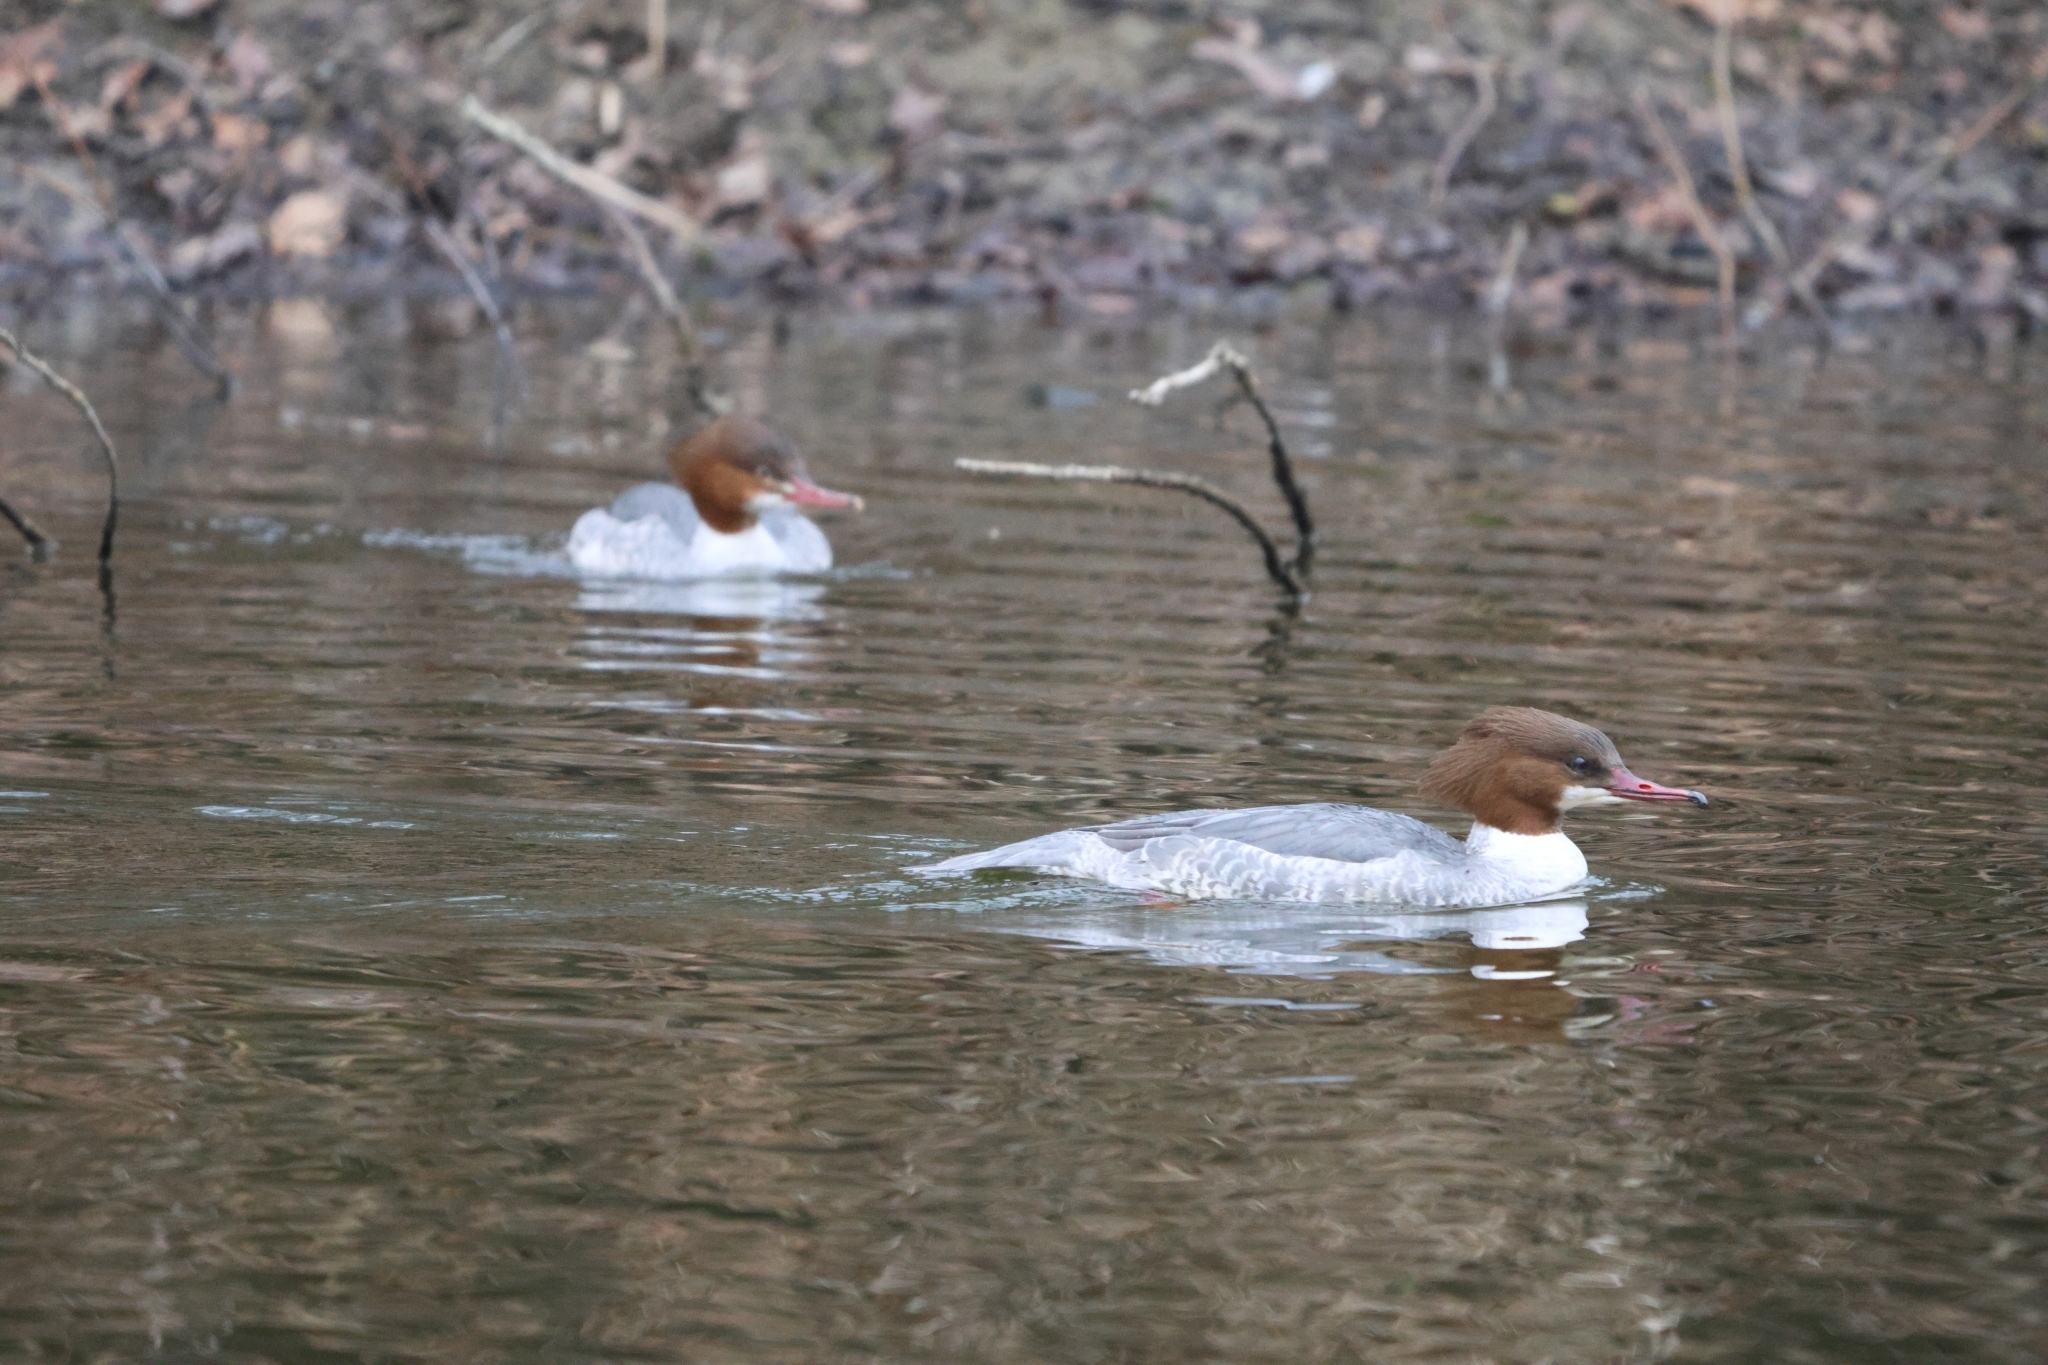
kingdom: Animalia
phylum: Chordata
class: Aves
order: Anseriformes
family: Anatidae
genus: Mergus
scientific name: Mergus merganser
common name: Common merganser
